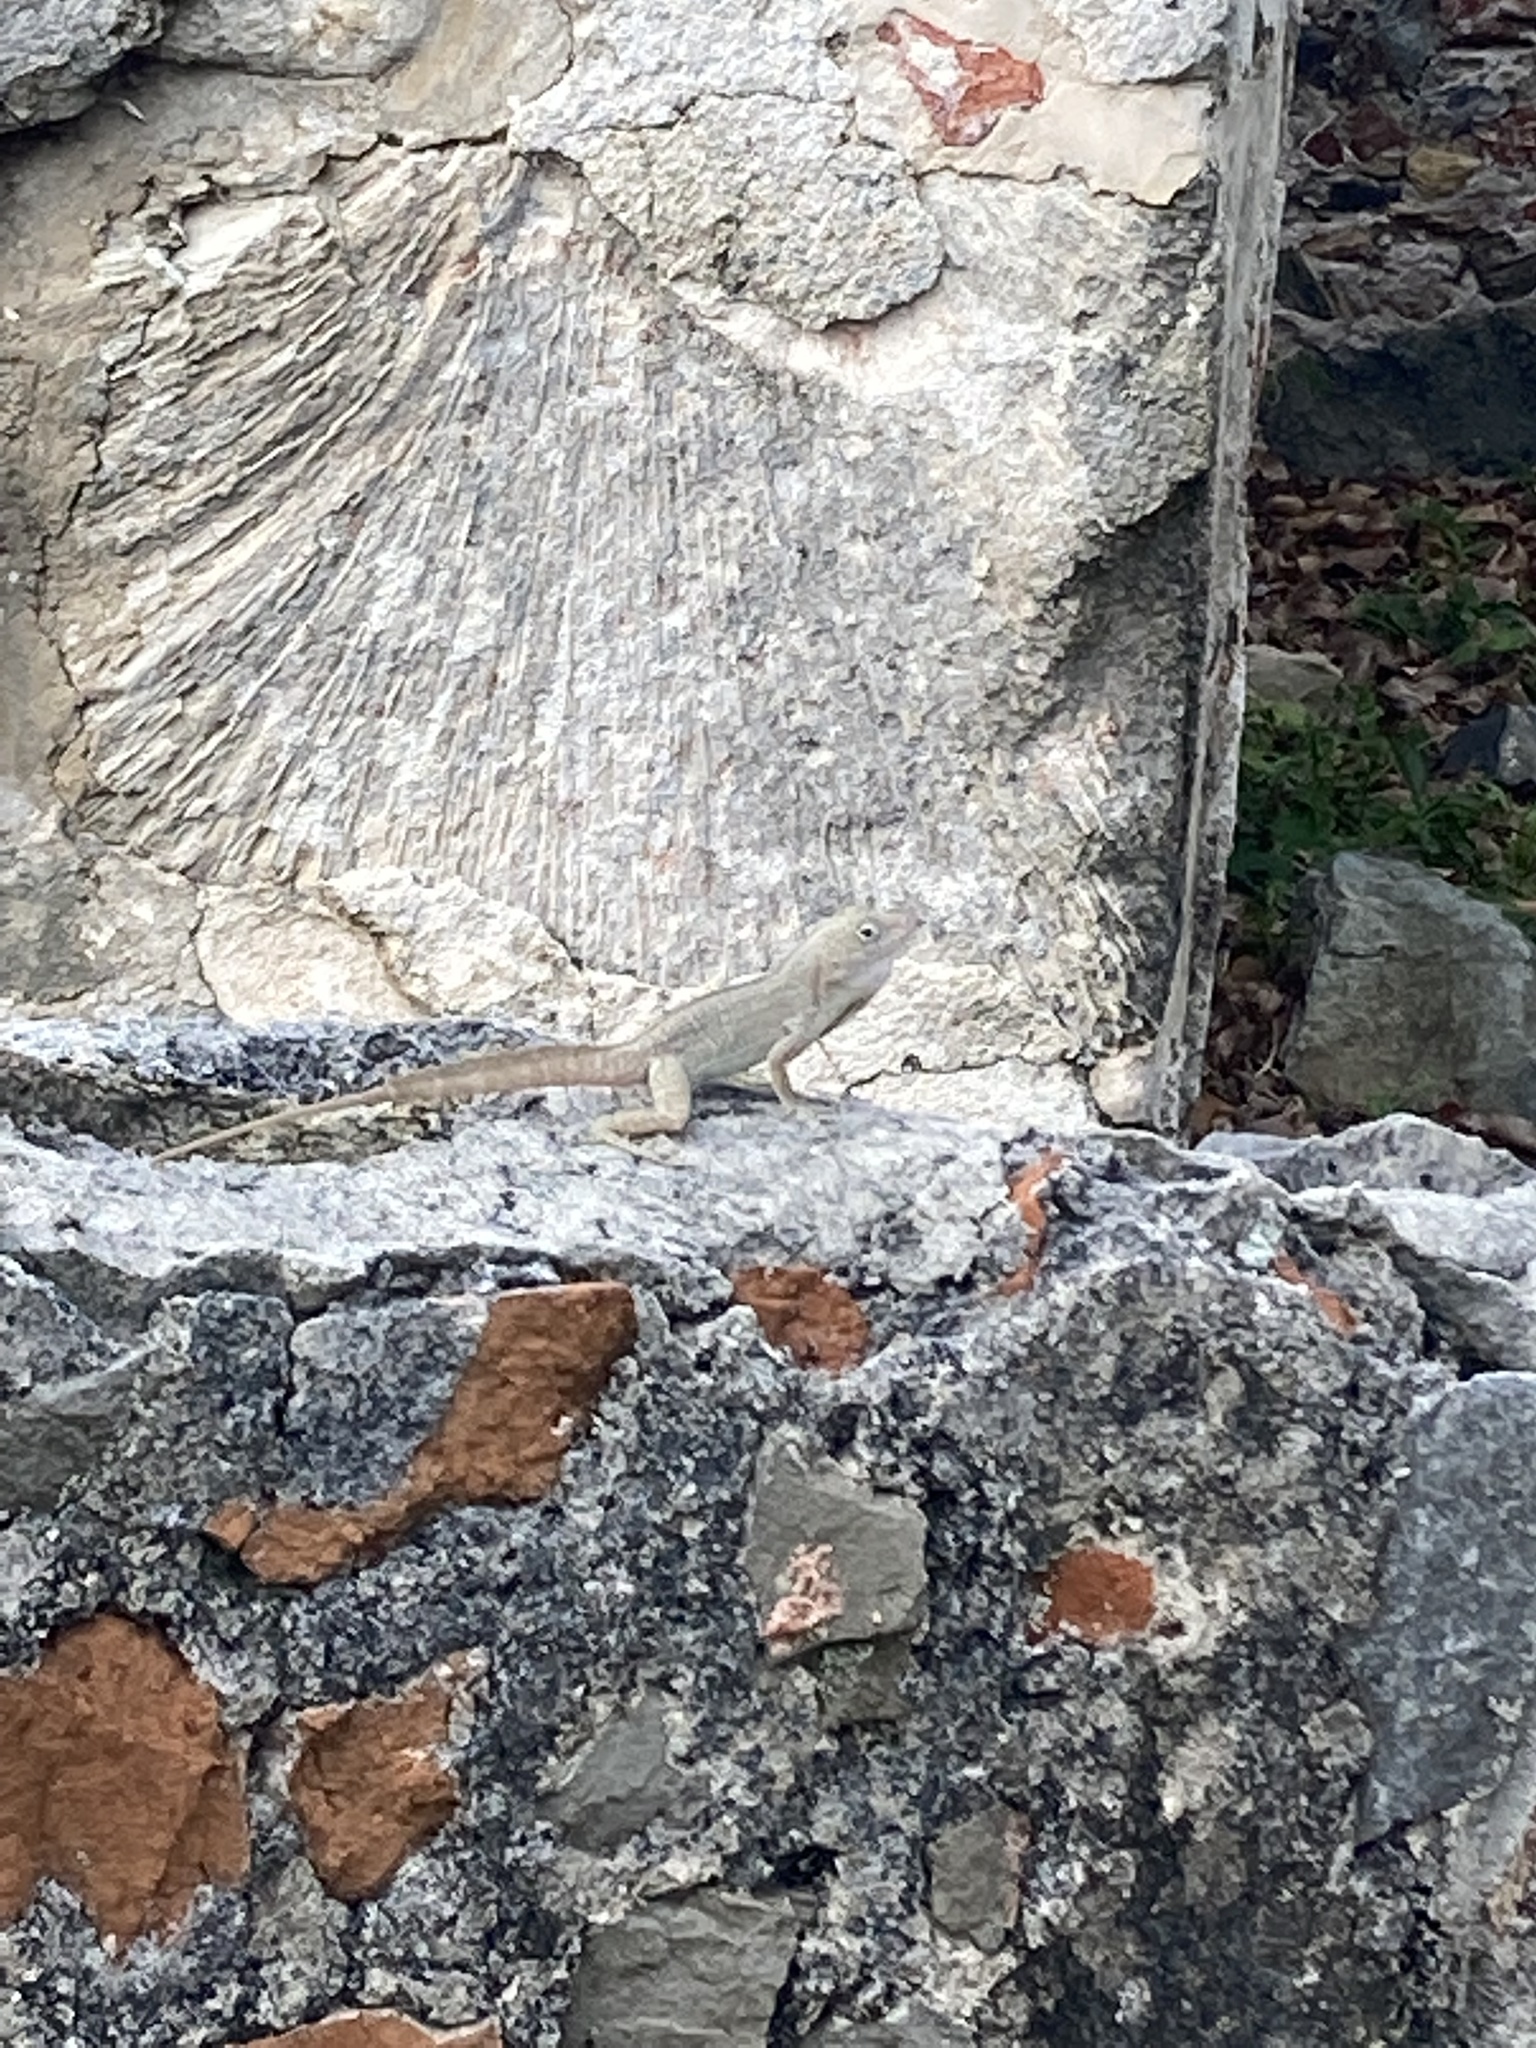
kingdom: Animalia
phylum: Chordata
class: Squamata
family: Dactyloidae
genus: Anolis
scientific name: Anolis cristatellus
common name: Crested anole
